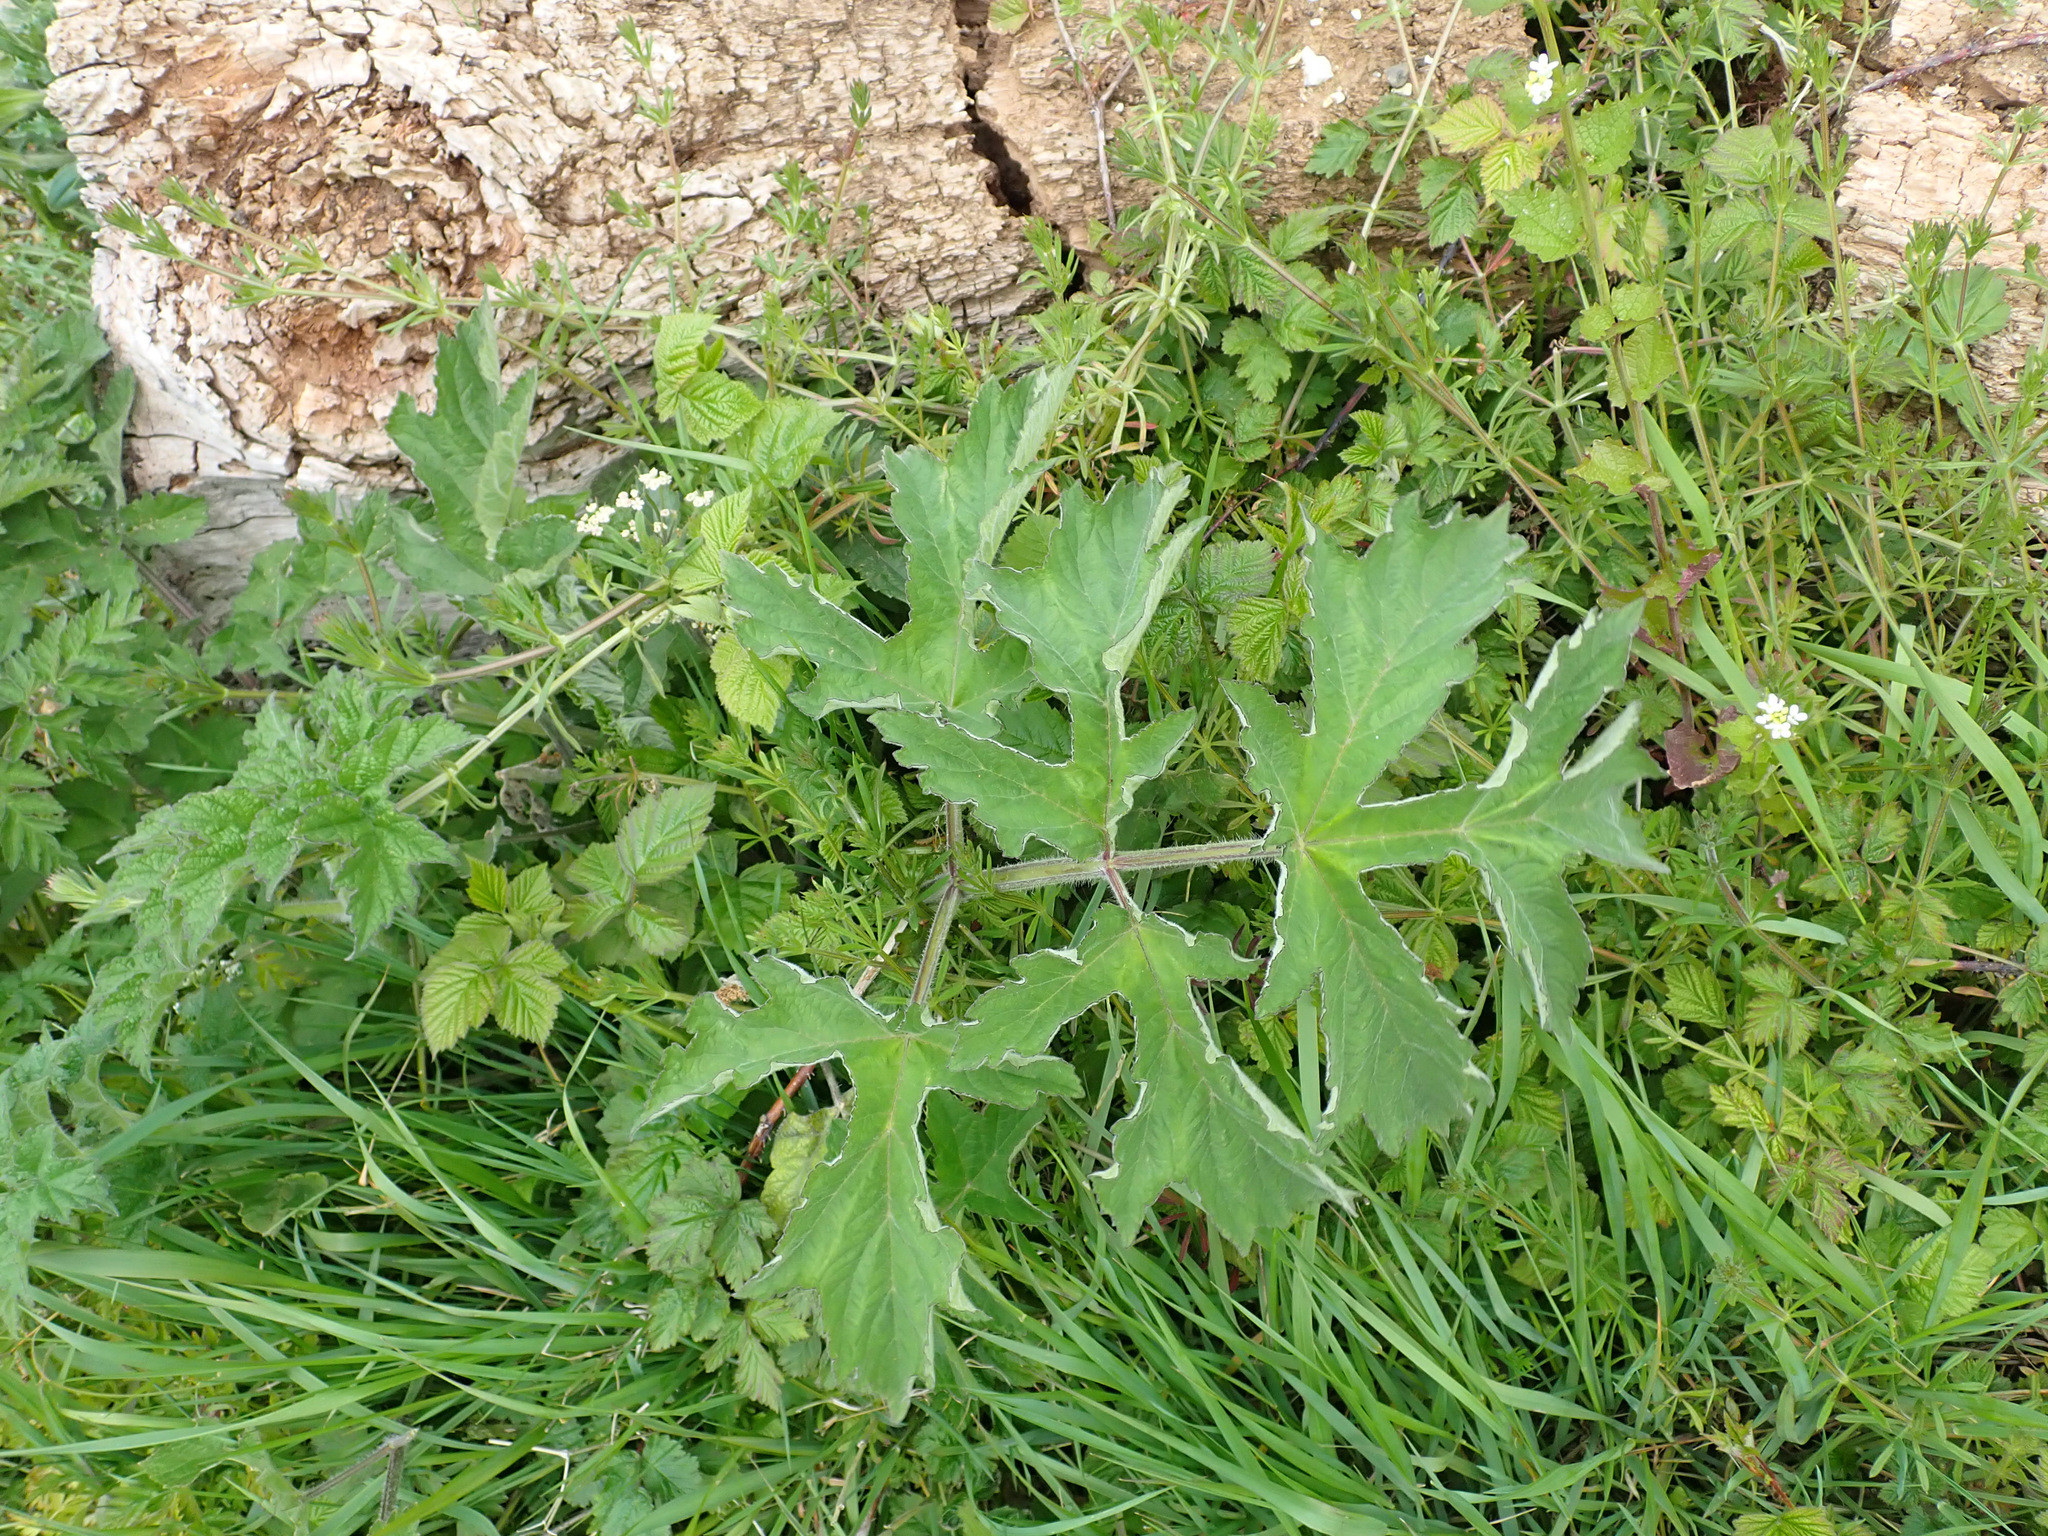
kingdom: Plantae
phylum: Tracheophyta
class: Magnoliopsida
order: Apiales
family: Apiaceae
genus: Heracleum
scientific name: Heracleum sphondylium
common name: Hogweed
